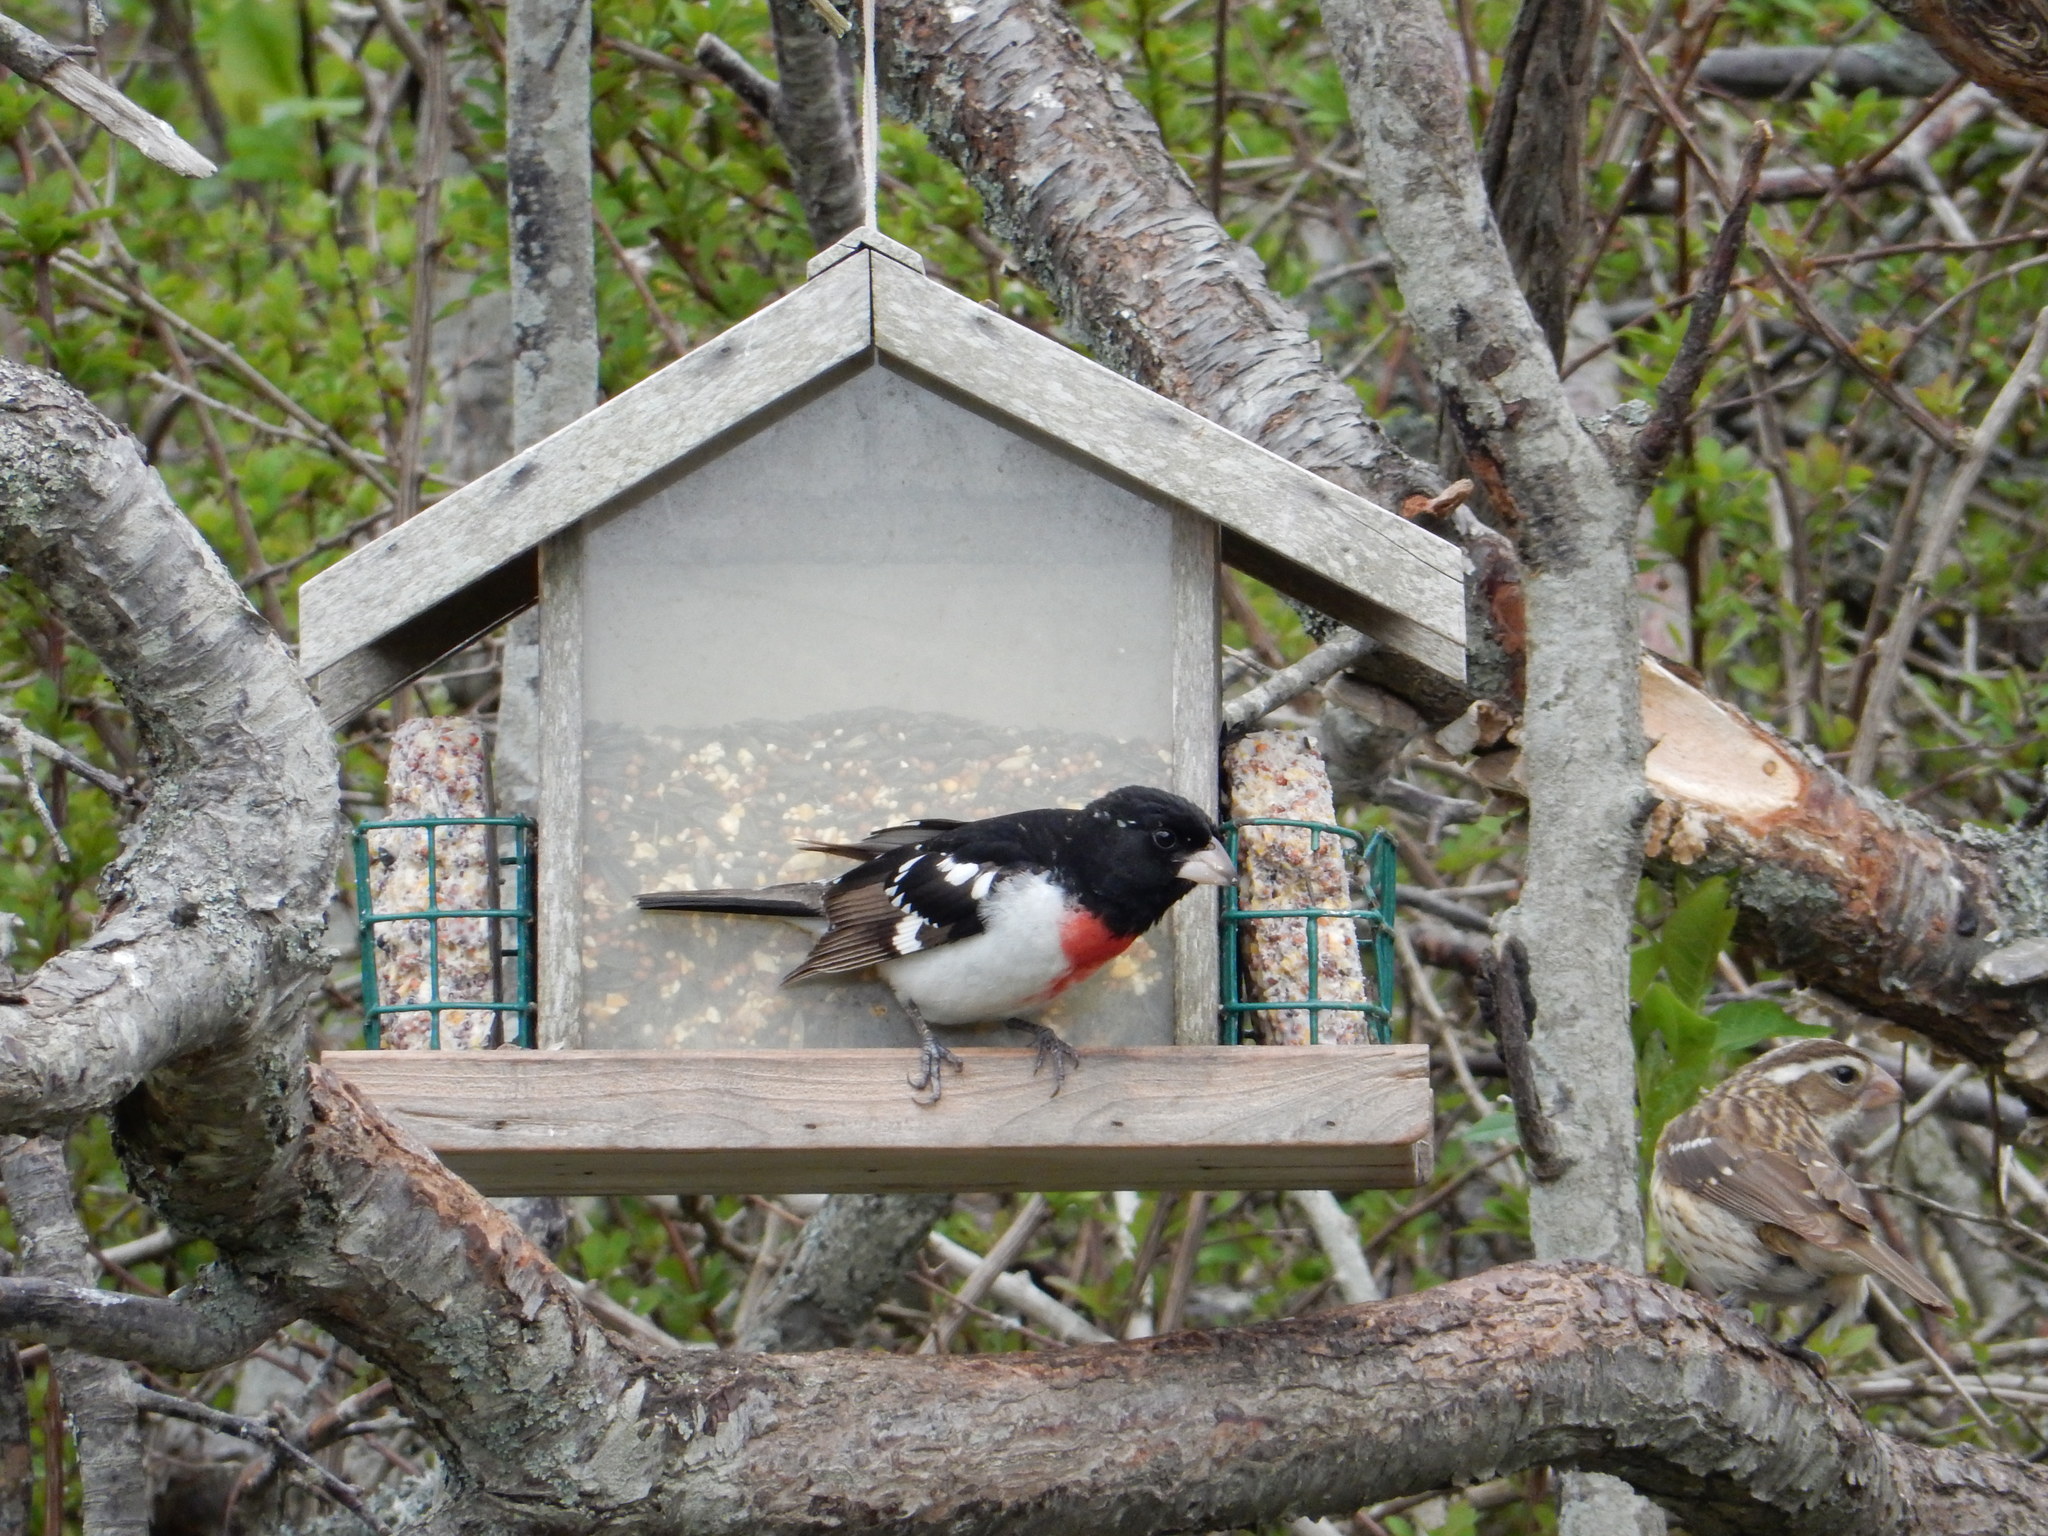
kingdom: Animalia
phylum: Chordata
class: Aves
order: Passeriformes
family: Cardinalidae
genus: Pheucticus
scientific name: Pheucticus ludovicianus
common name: Rose-breasted grosbeak
